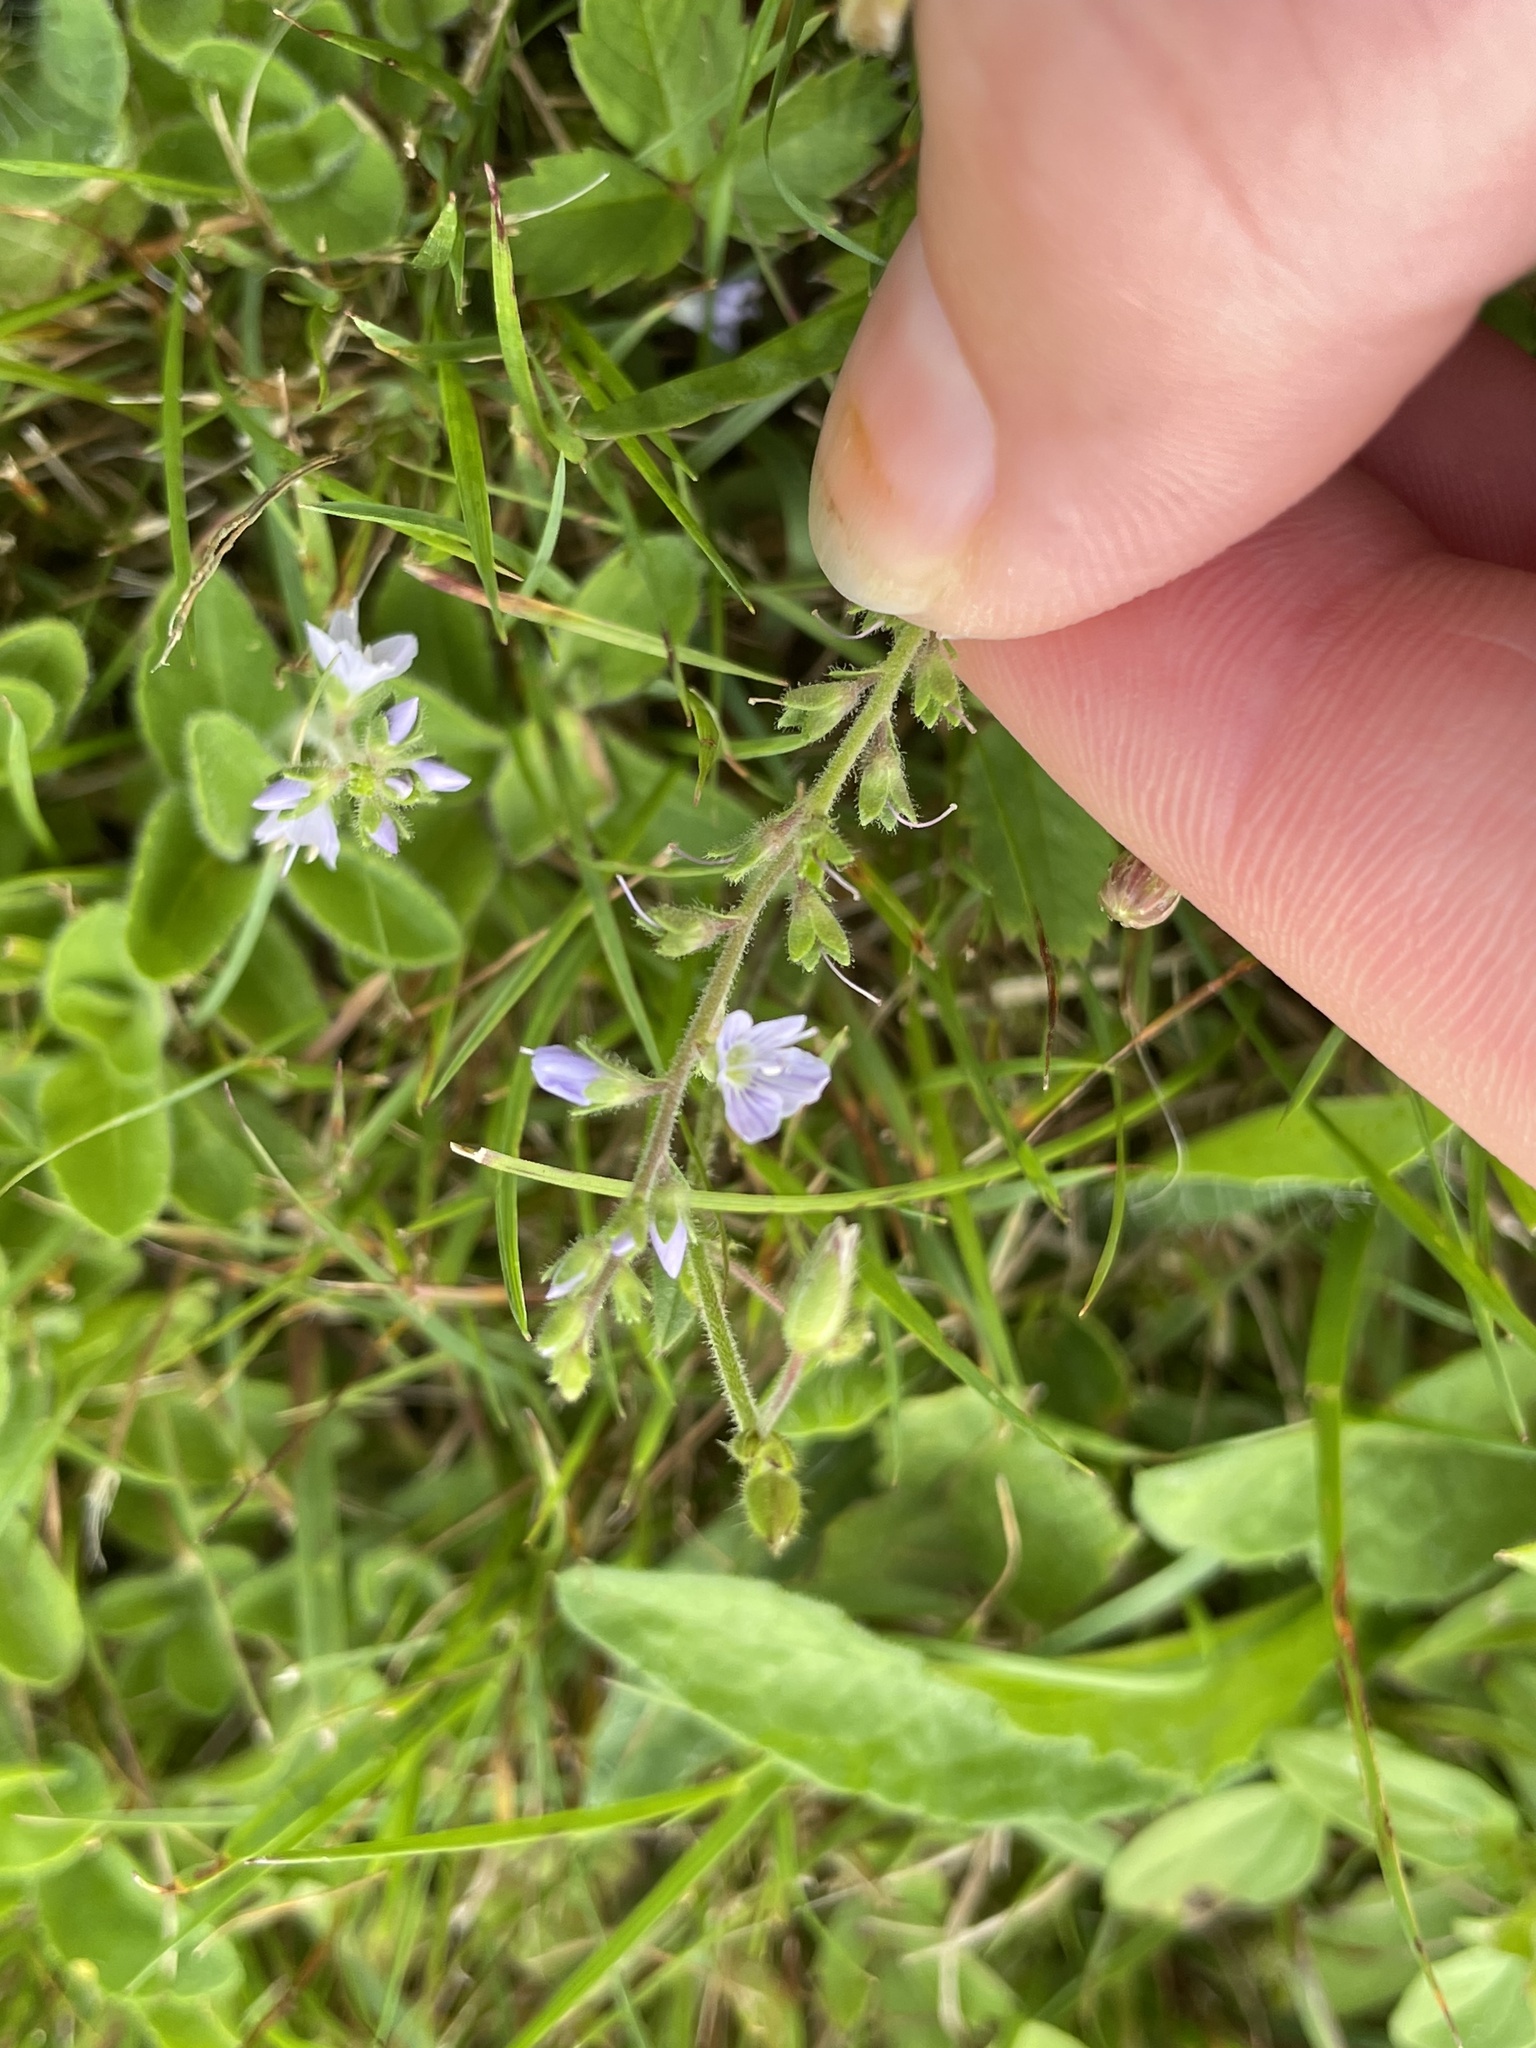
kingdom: Plantae
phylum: Tracheophyta
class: Magnoliopsida
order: Lamiales
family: Plantaginaceae
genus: Veronica
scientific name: Veronica officinalis
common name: Common speedwell
